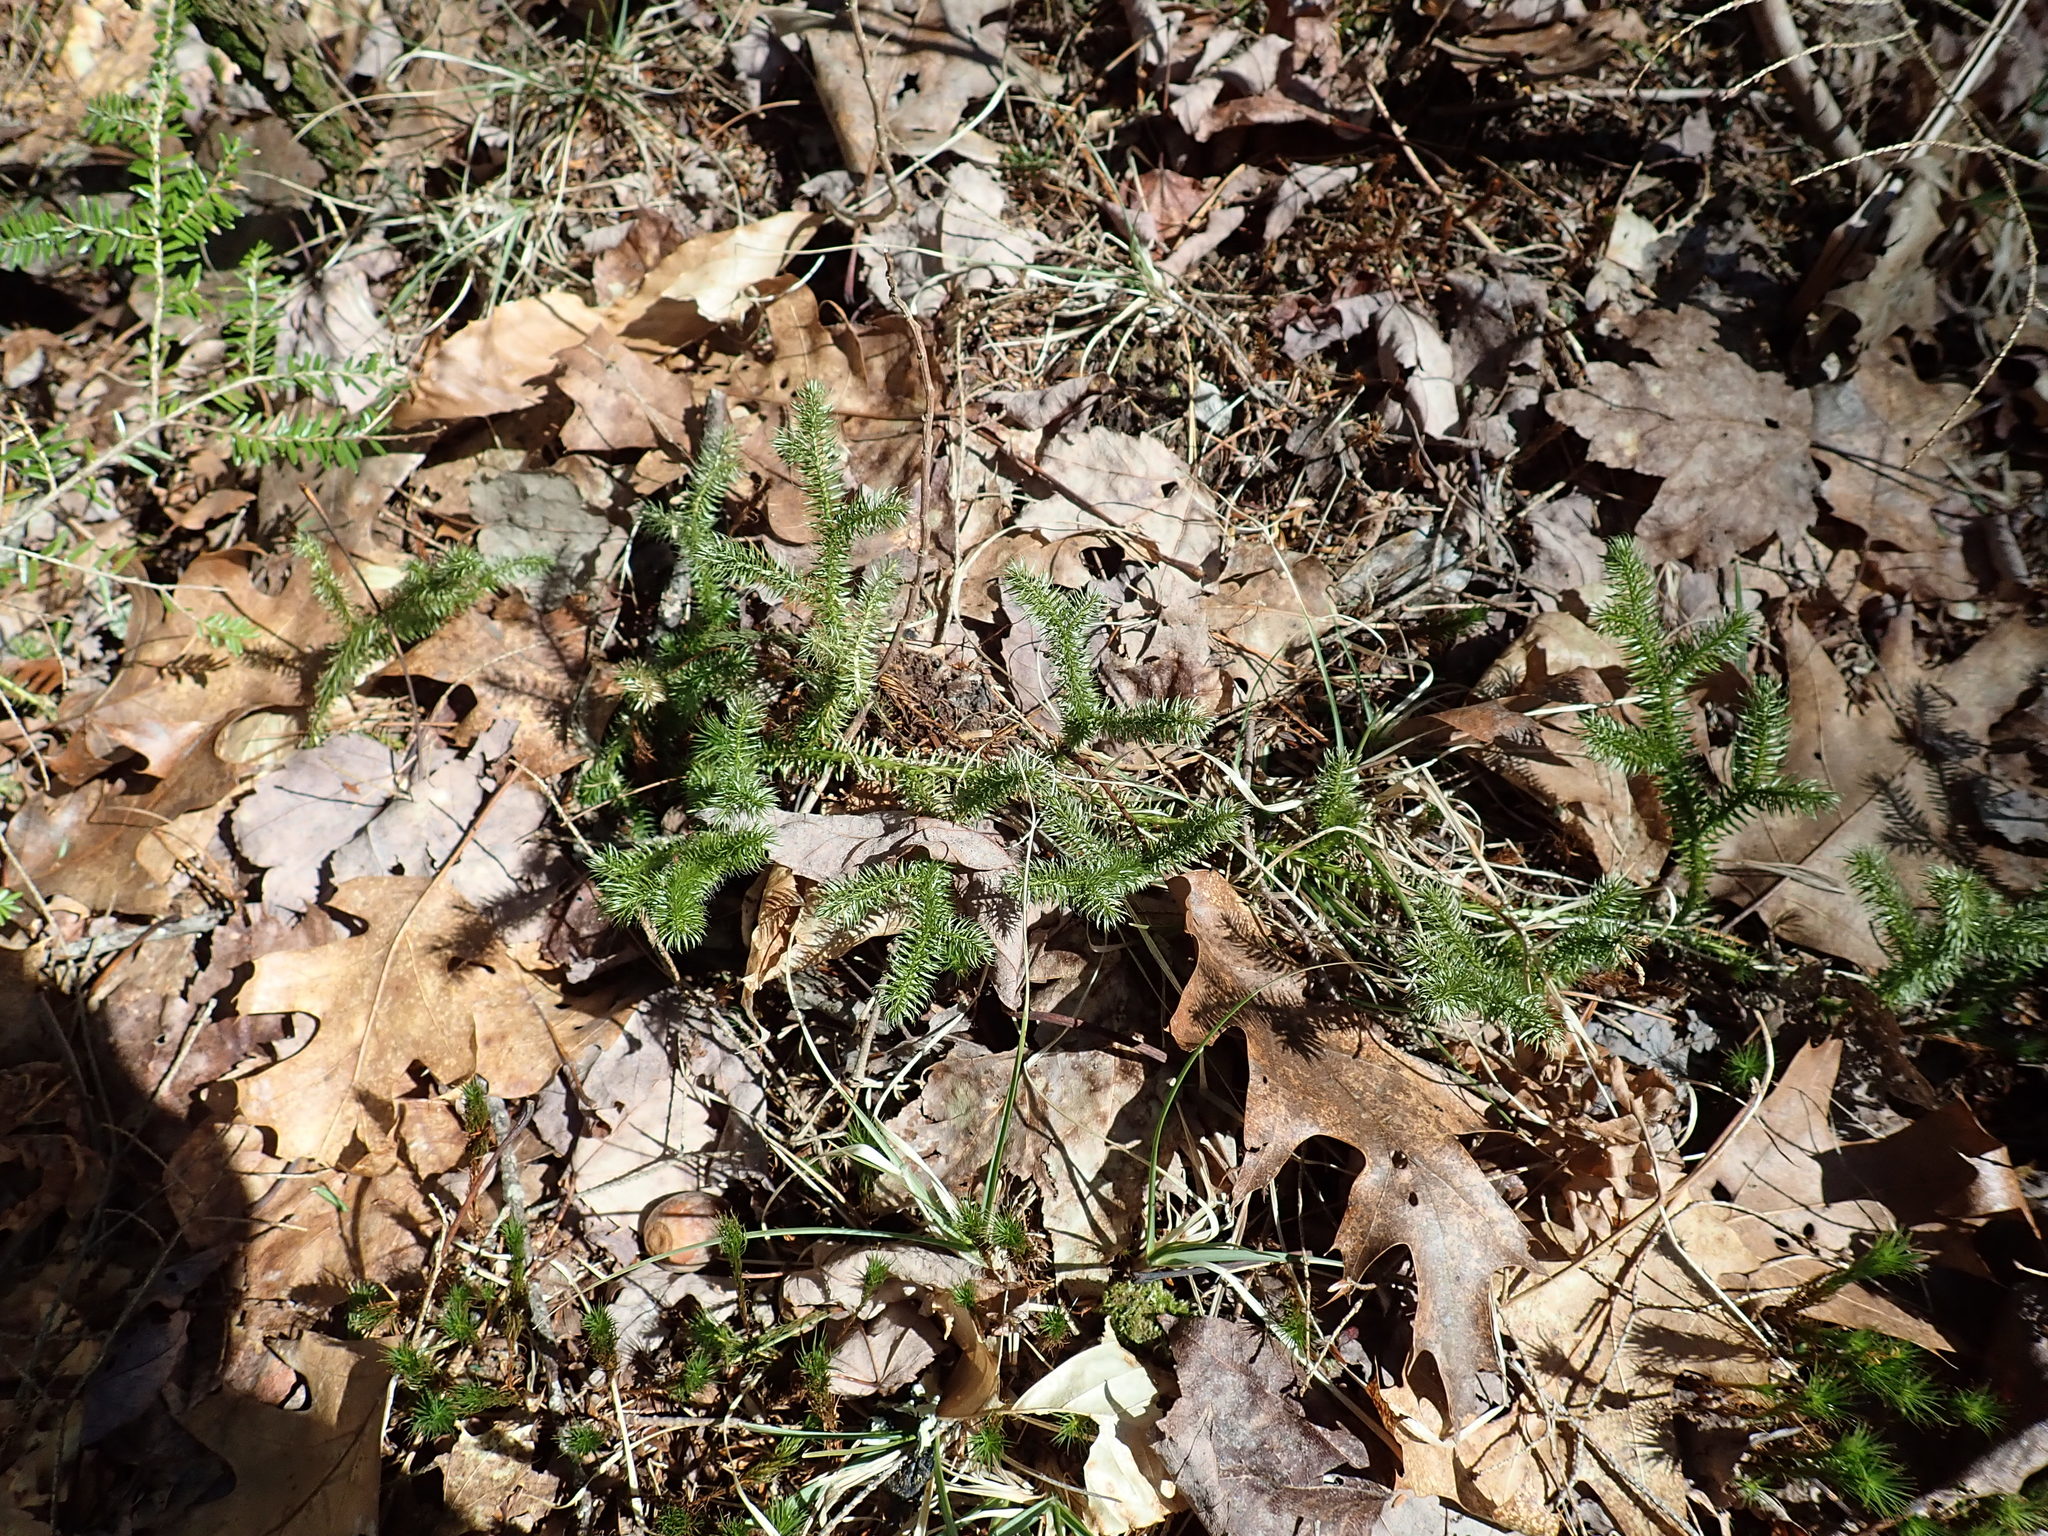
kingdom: Plantae
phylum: Tracheophyta
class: Lycopodiopsida
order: Lycopodiales
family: Lycopodiaceae
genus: Lycopodium
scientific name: Lycopodium clavatum
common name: Stag's-horn clubmoss
